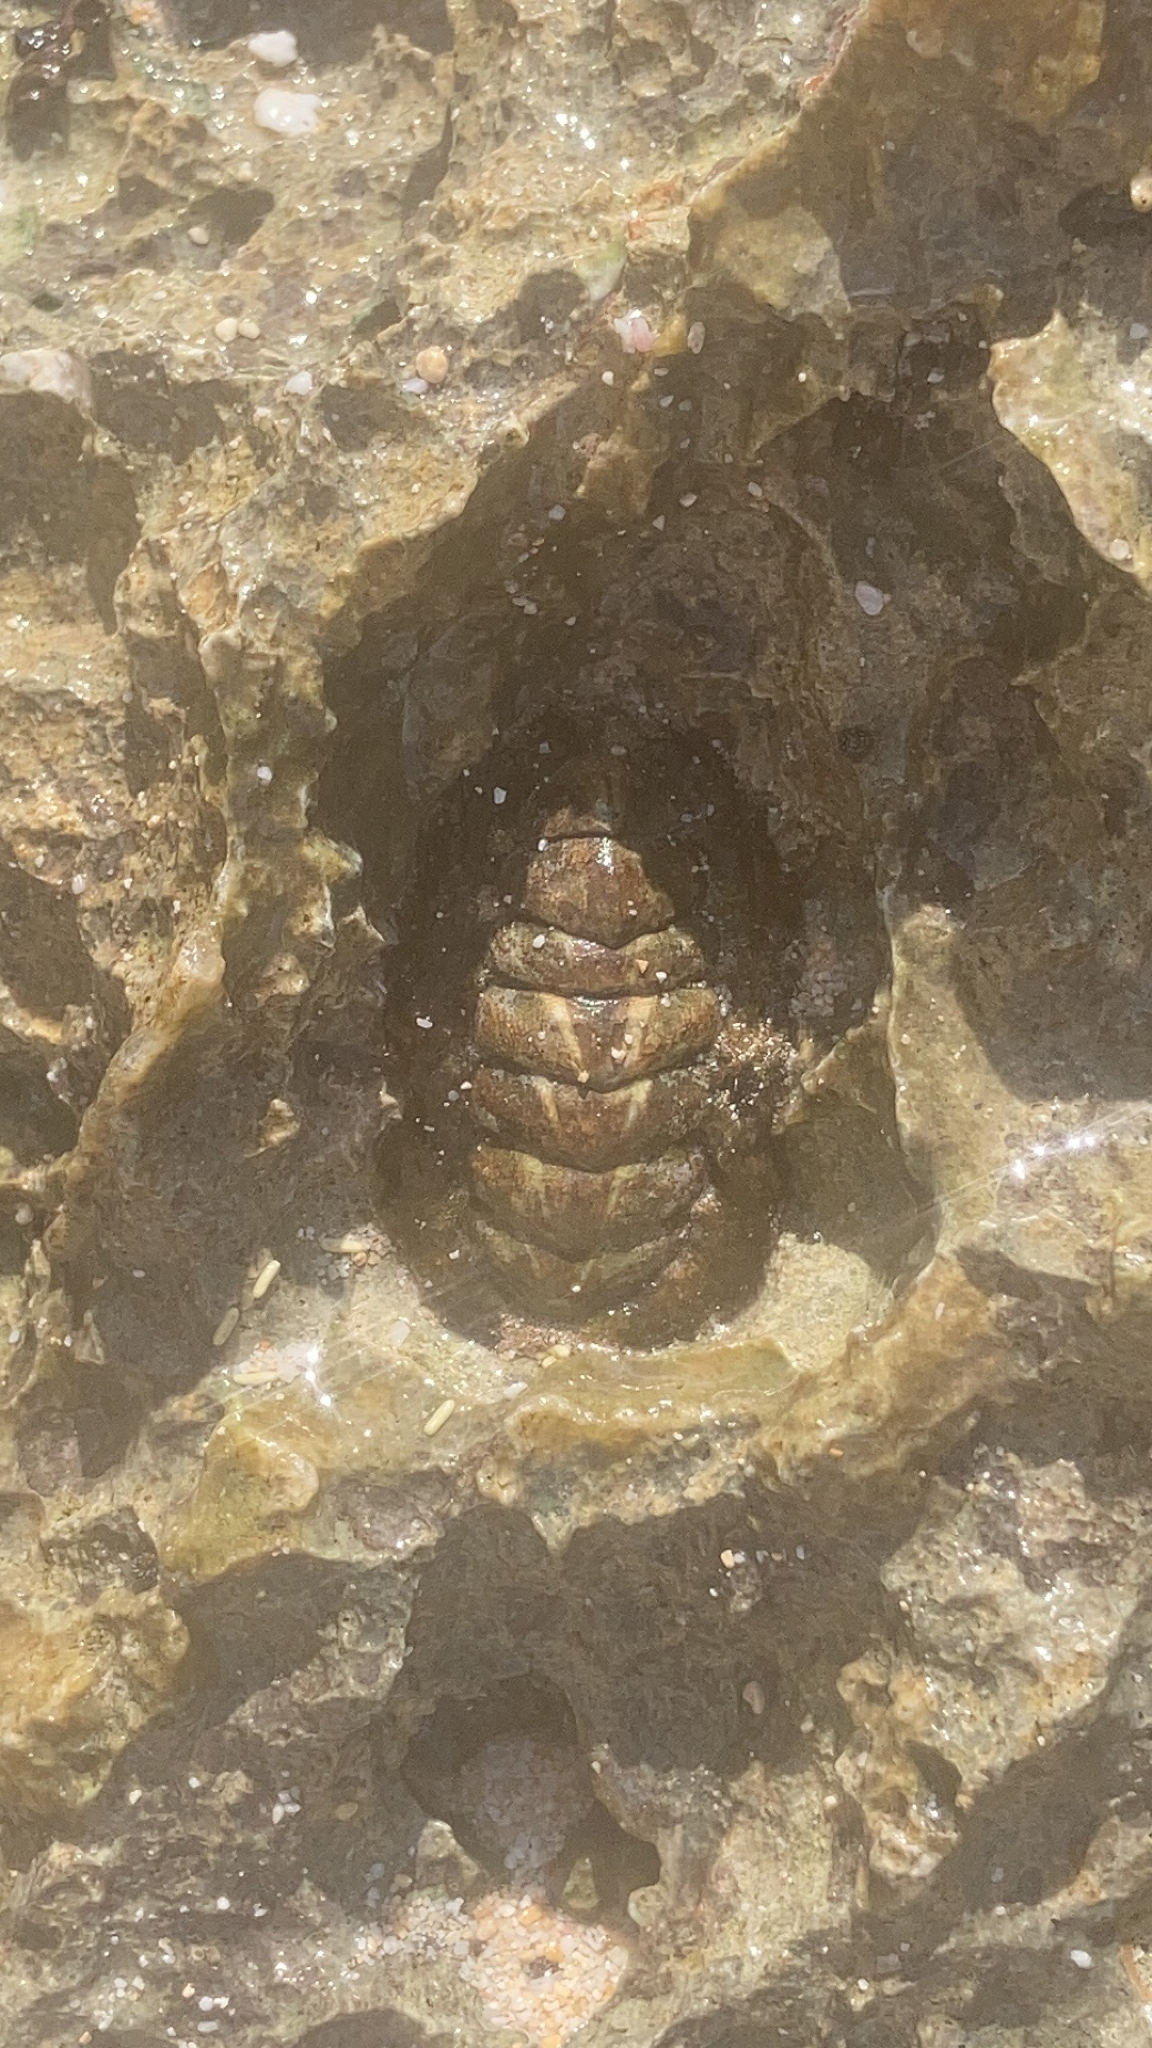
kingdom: Animalia
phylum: Mollusca
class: Polyplacophora
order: Chitonida
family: Chitonidae
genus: Acanthopleura
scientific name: Acanthopleura granulata
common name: West indian fuzzy chiton
